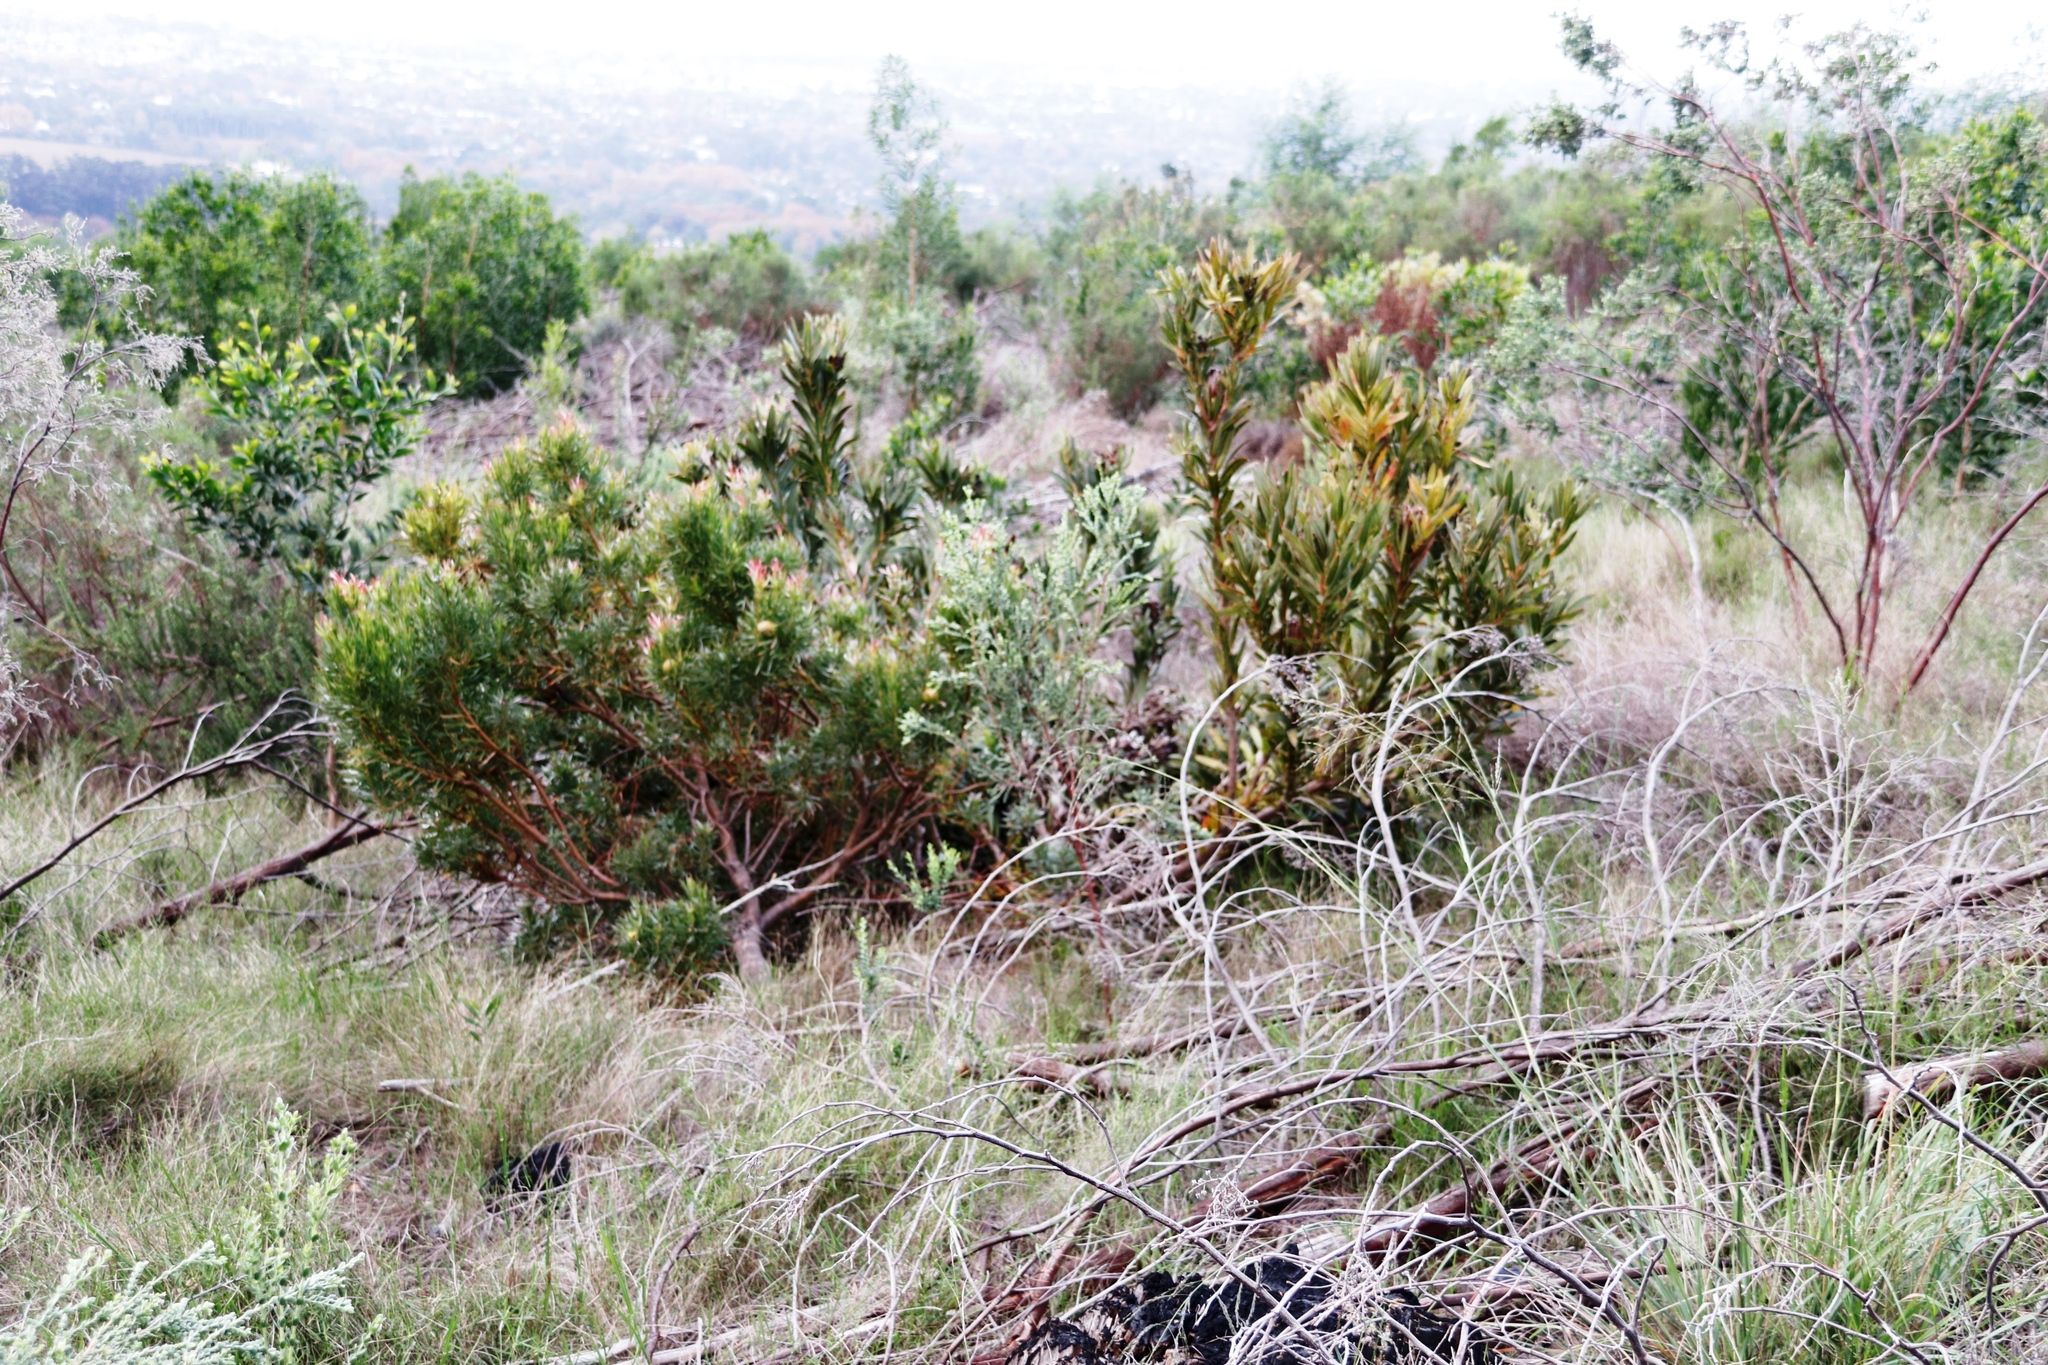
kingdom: Plantae
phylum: Tracheophyta
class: Magnoliopsida
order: Proteales
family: Proteaceae
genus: Leucadendron
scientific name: Leucadendron xanthoconus
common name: Sickle-leaf conebush
